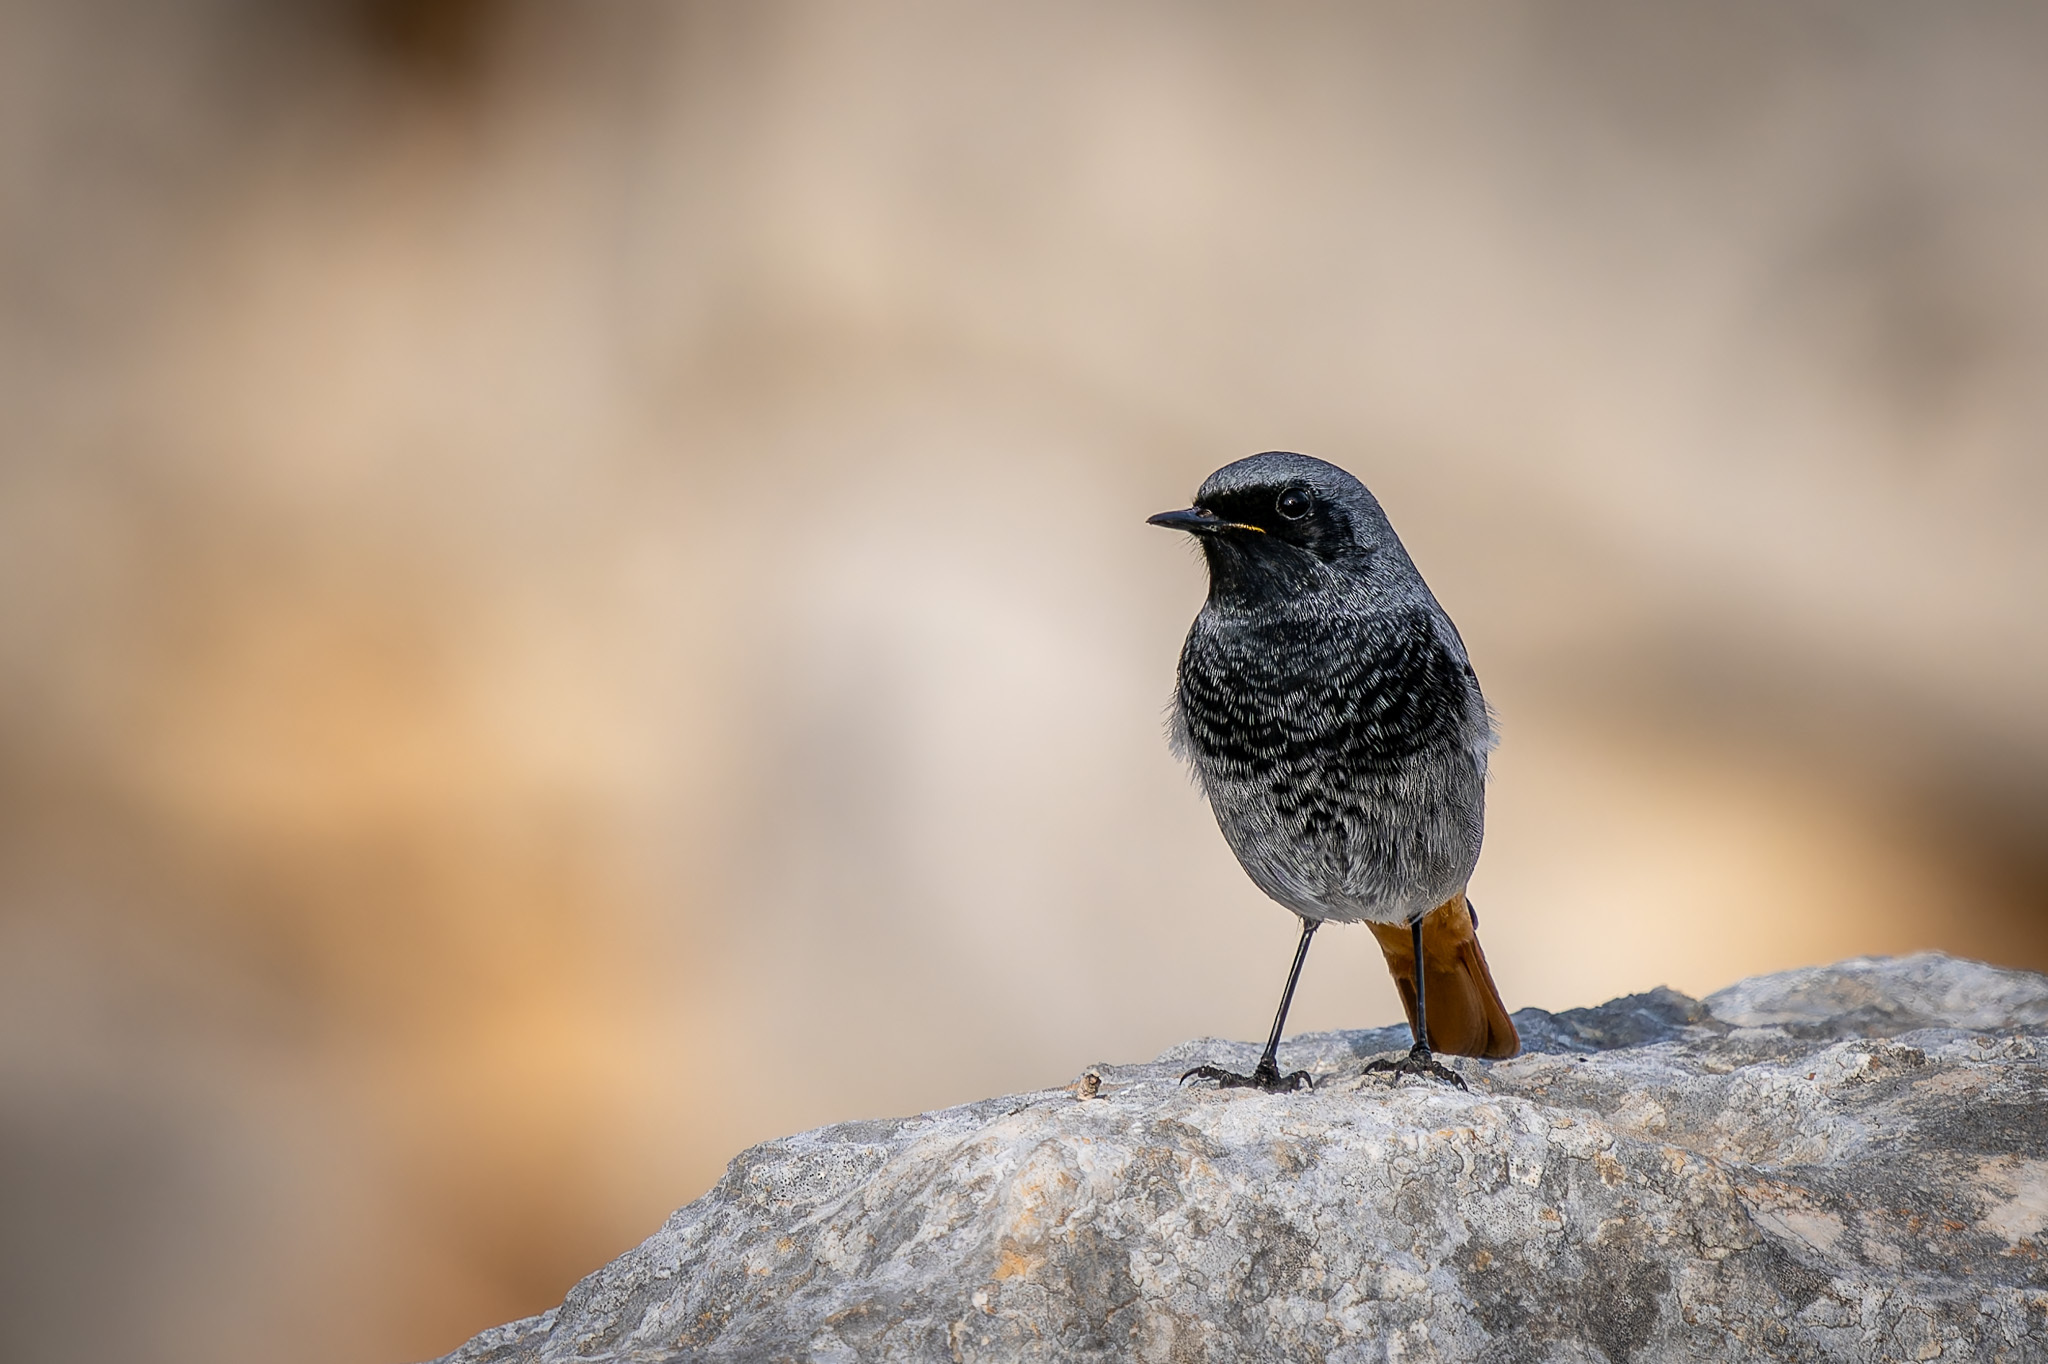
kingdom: Animalia
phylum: Chordata
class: Aves
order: Passeriformes
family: Muscicapidae
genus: Phoenicurus
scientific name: Phoenicurus ochruros
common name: Black redstart
